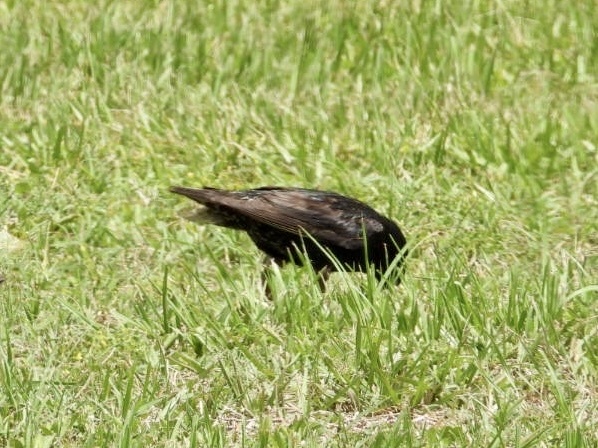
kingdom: Animalia
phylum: Chordata
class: Aves
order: Passeriformes
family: Sturnidae
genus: Sturnus
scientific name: Sturnus vulgaris
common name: Common starling
